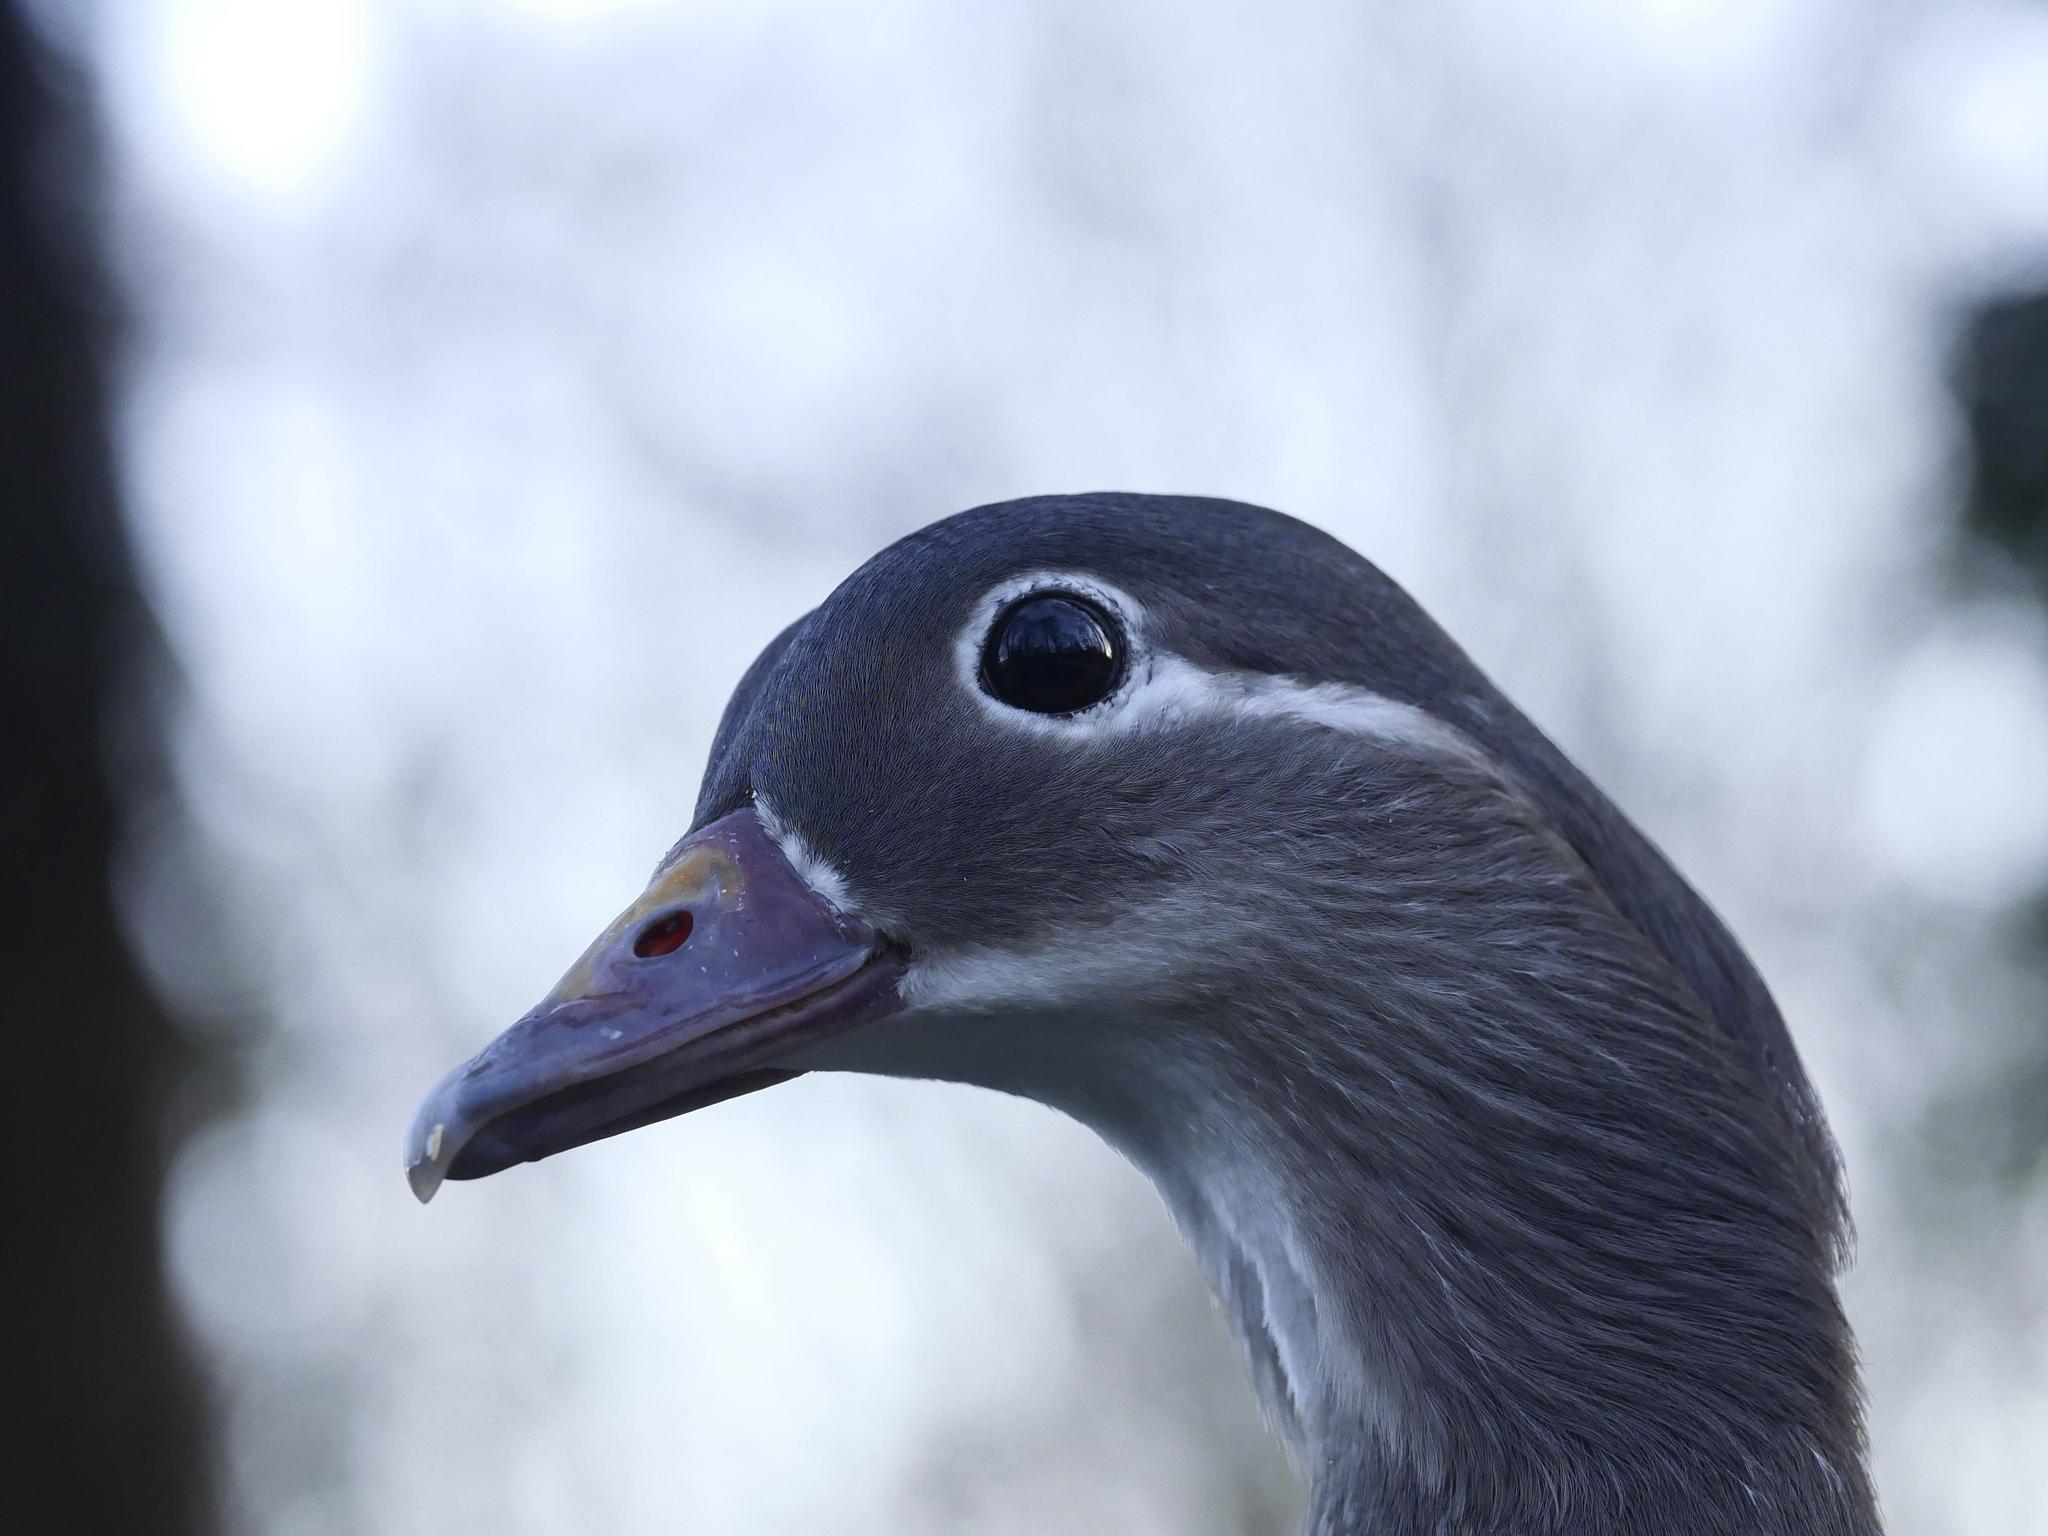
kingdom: Animalia
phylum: Chordata
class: Aves
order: Anseriformes
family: Anatidae
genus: Aix
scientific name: Aix galericulata
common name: Mandarin duck
